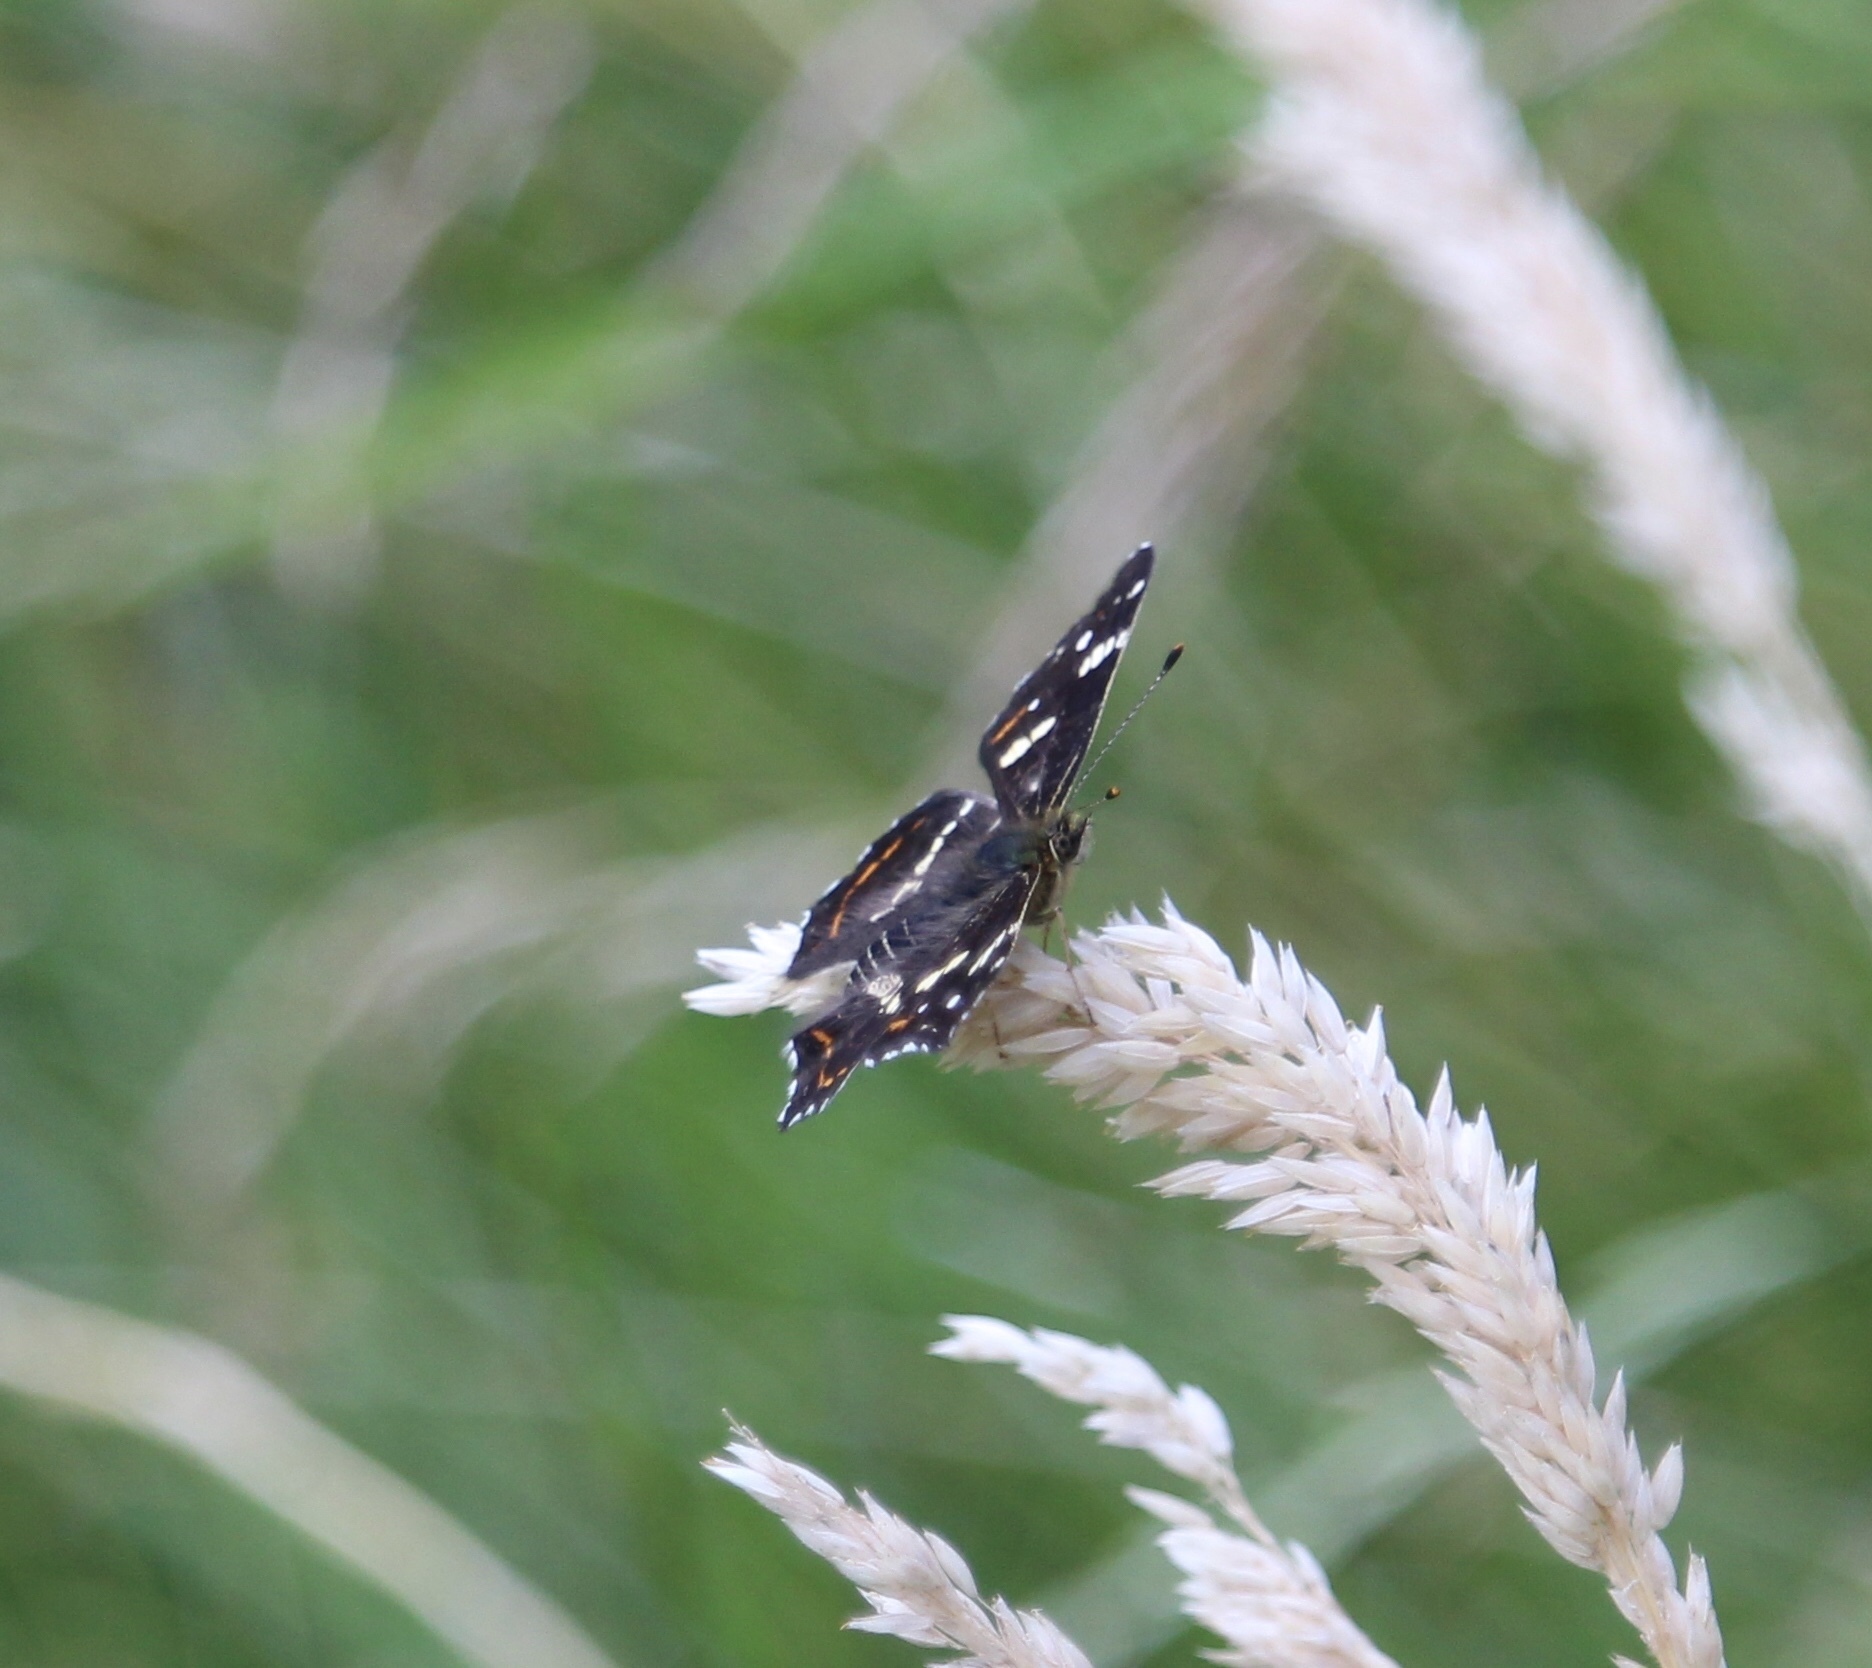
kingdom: Animalia
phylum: Arthropoda
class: Insecta
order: Lepidoptera
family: Nymphalidae
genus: Araschnia
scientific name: Araschnia levana
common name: Map butterfly
